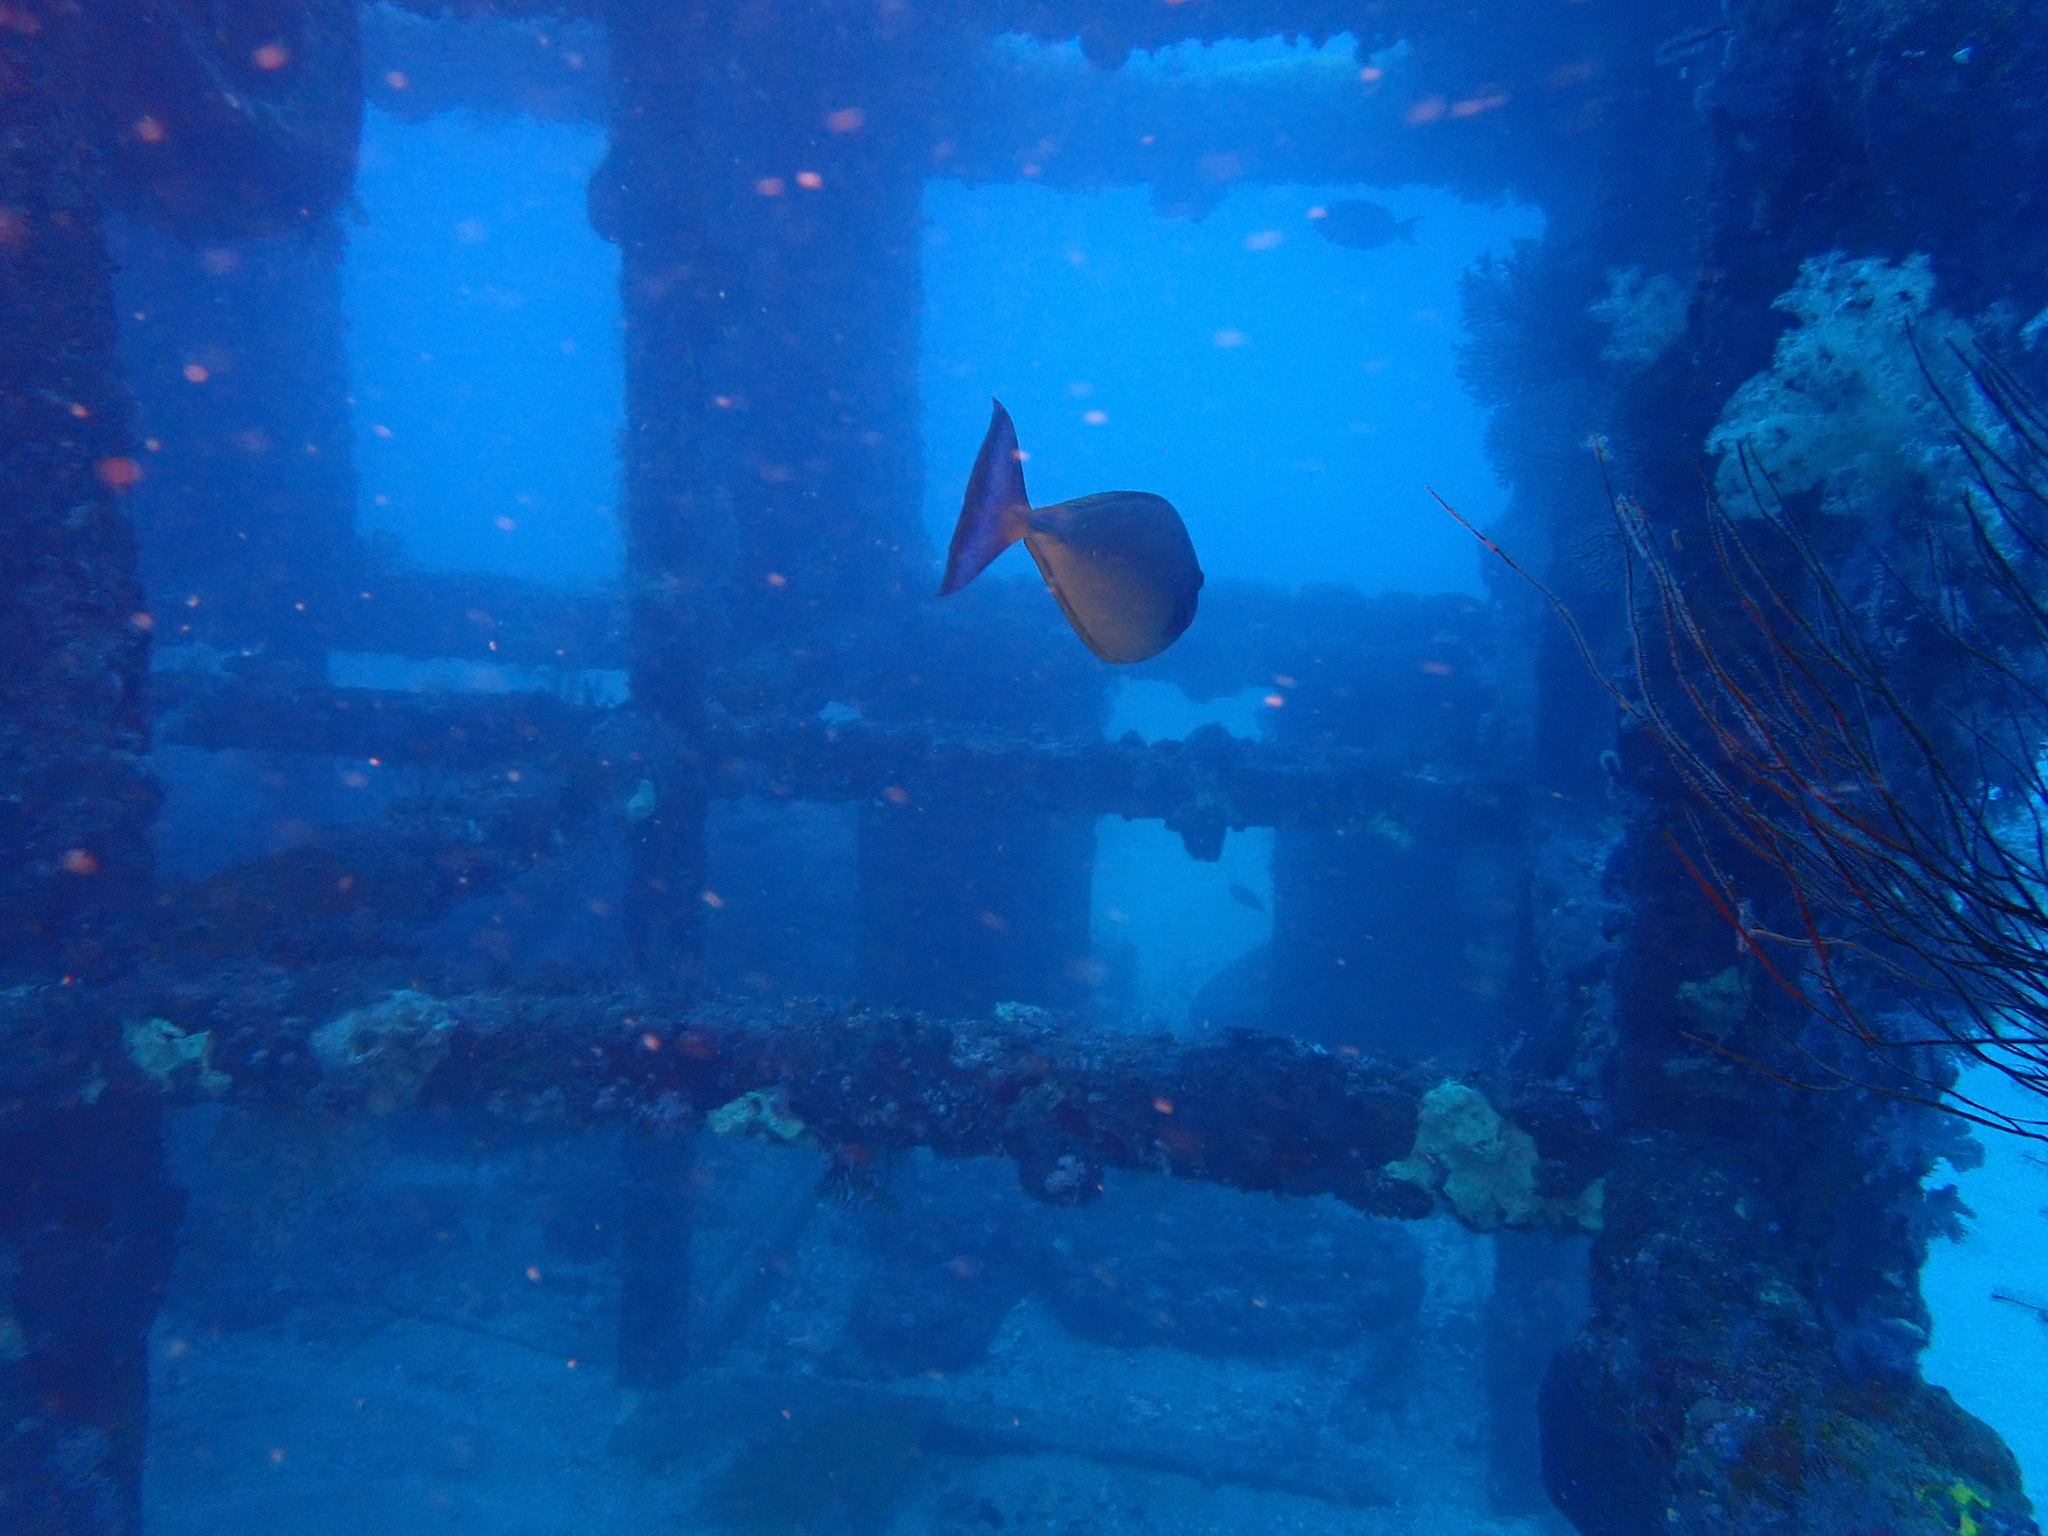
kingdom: Animalia
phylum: Chordata
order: Perciformes
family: Acanthuridae
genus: Naso
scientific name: Naso vlamingii
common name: Big-nose unicorn
